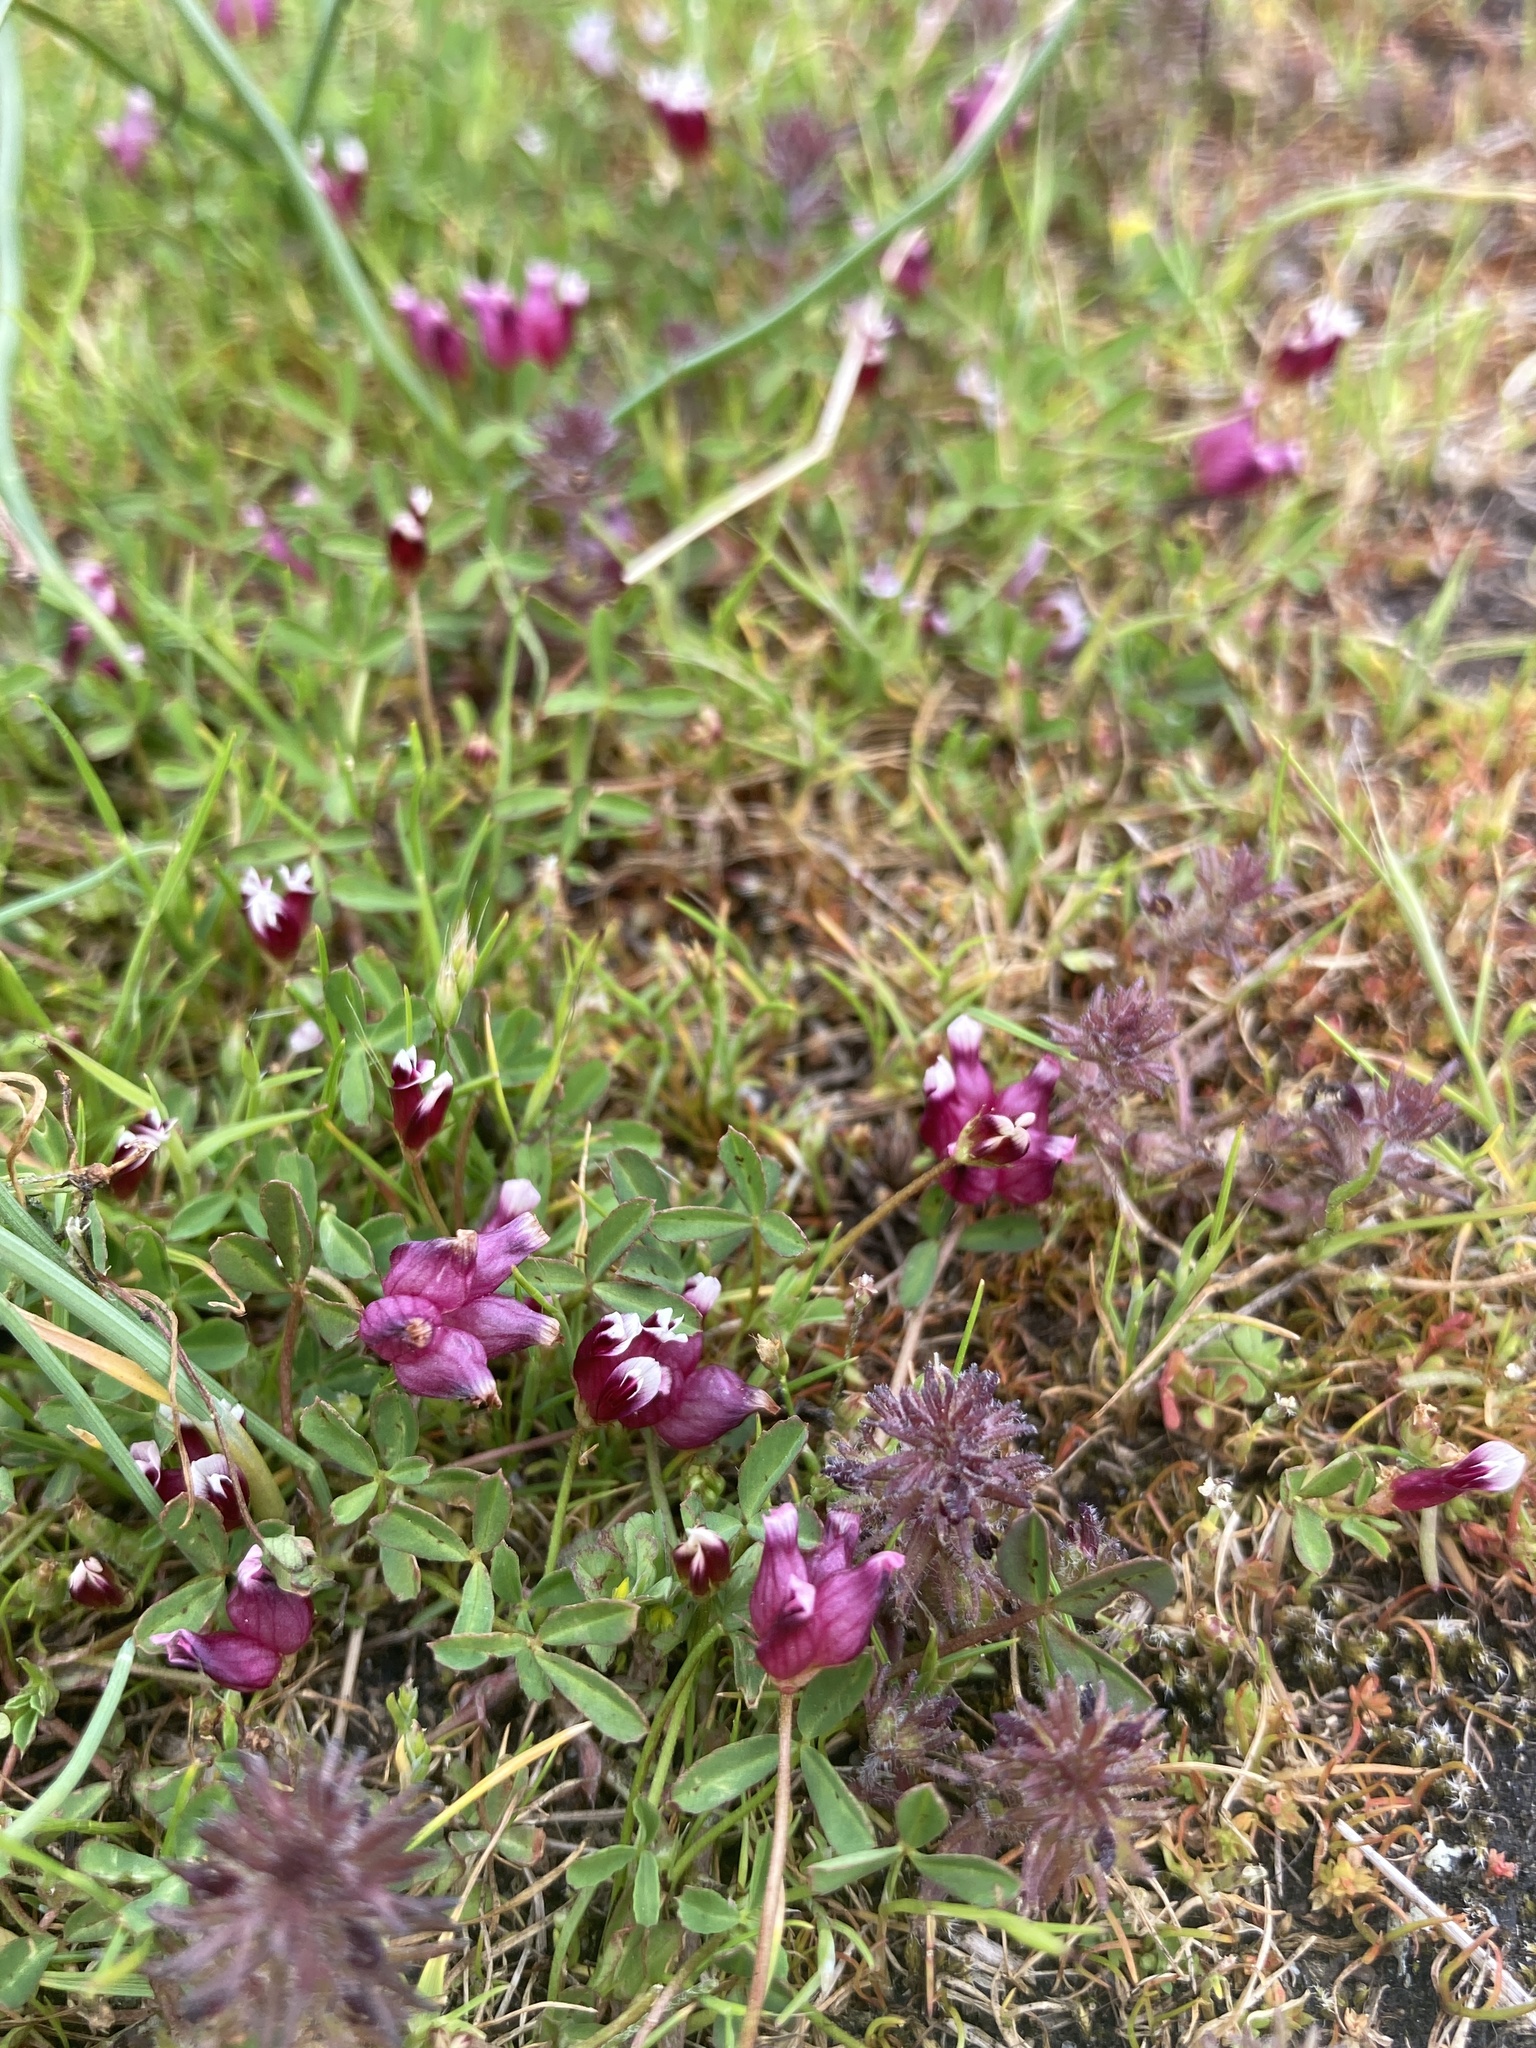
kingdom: Plantae
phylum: Tracheophyta
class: Magnoliopsida
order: Fabales
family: Fabaceae
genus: Trifolium
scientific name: Trifolium depauperatum
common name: Poverty clover
